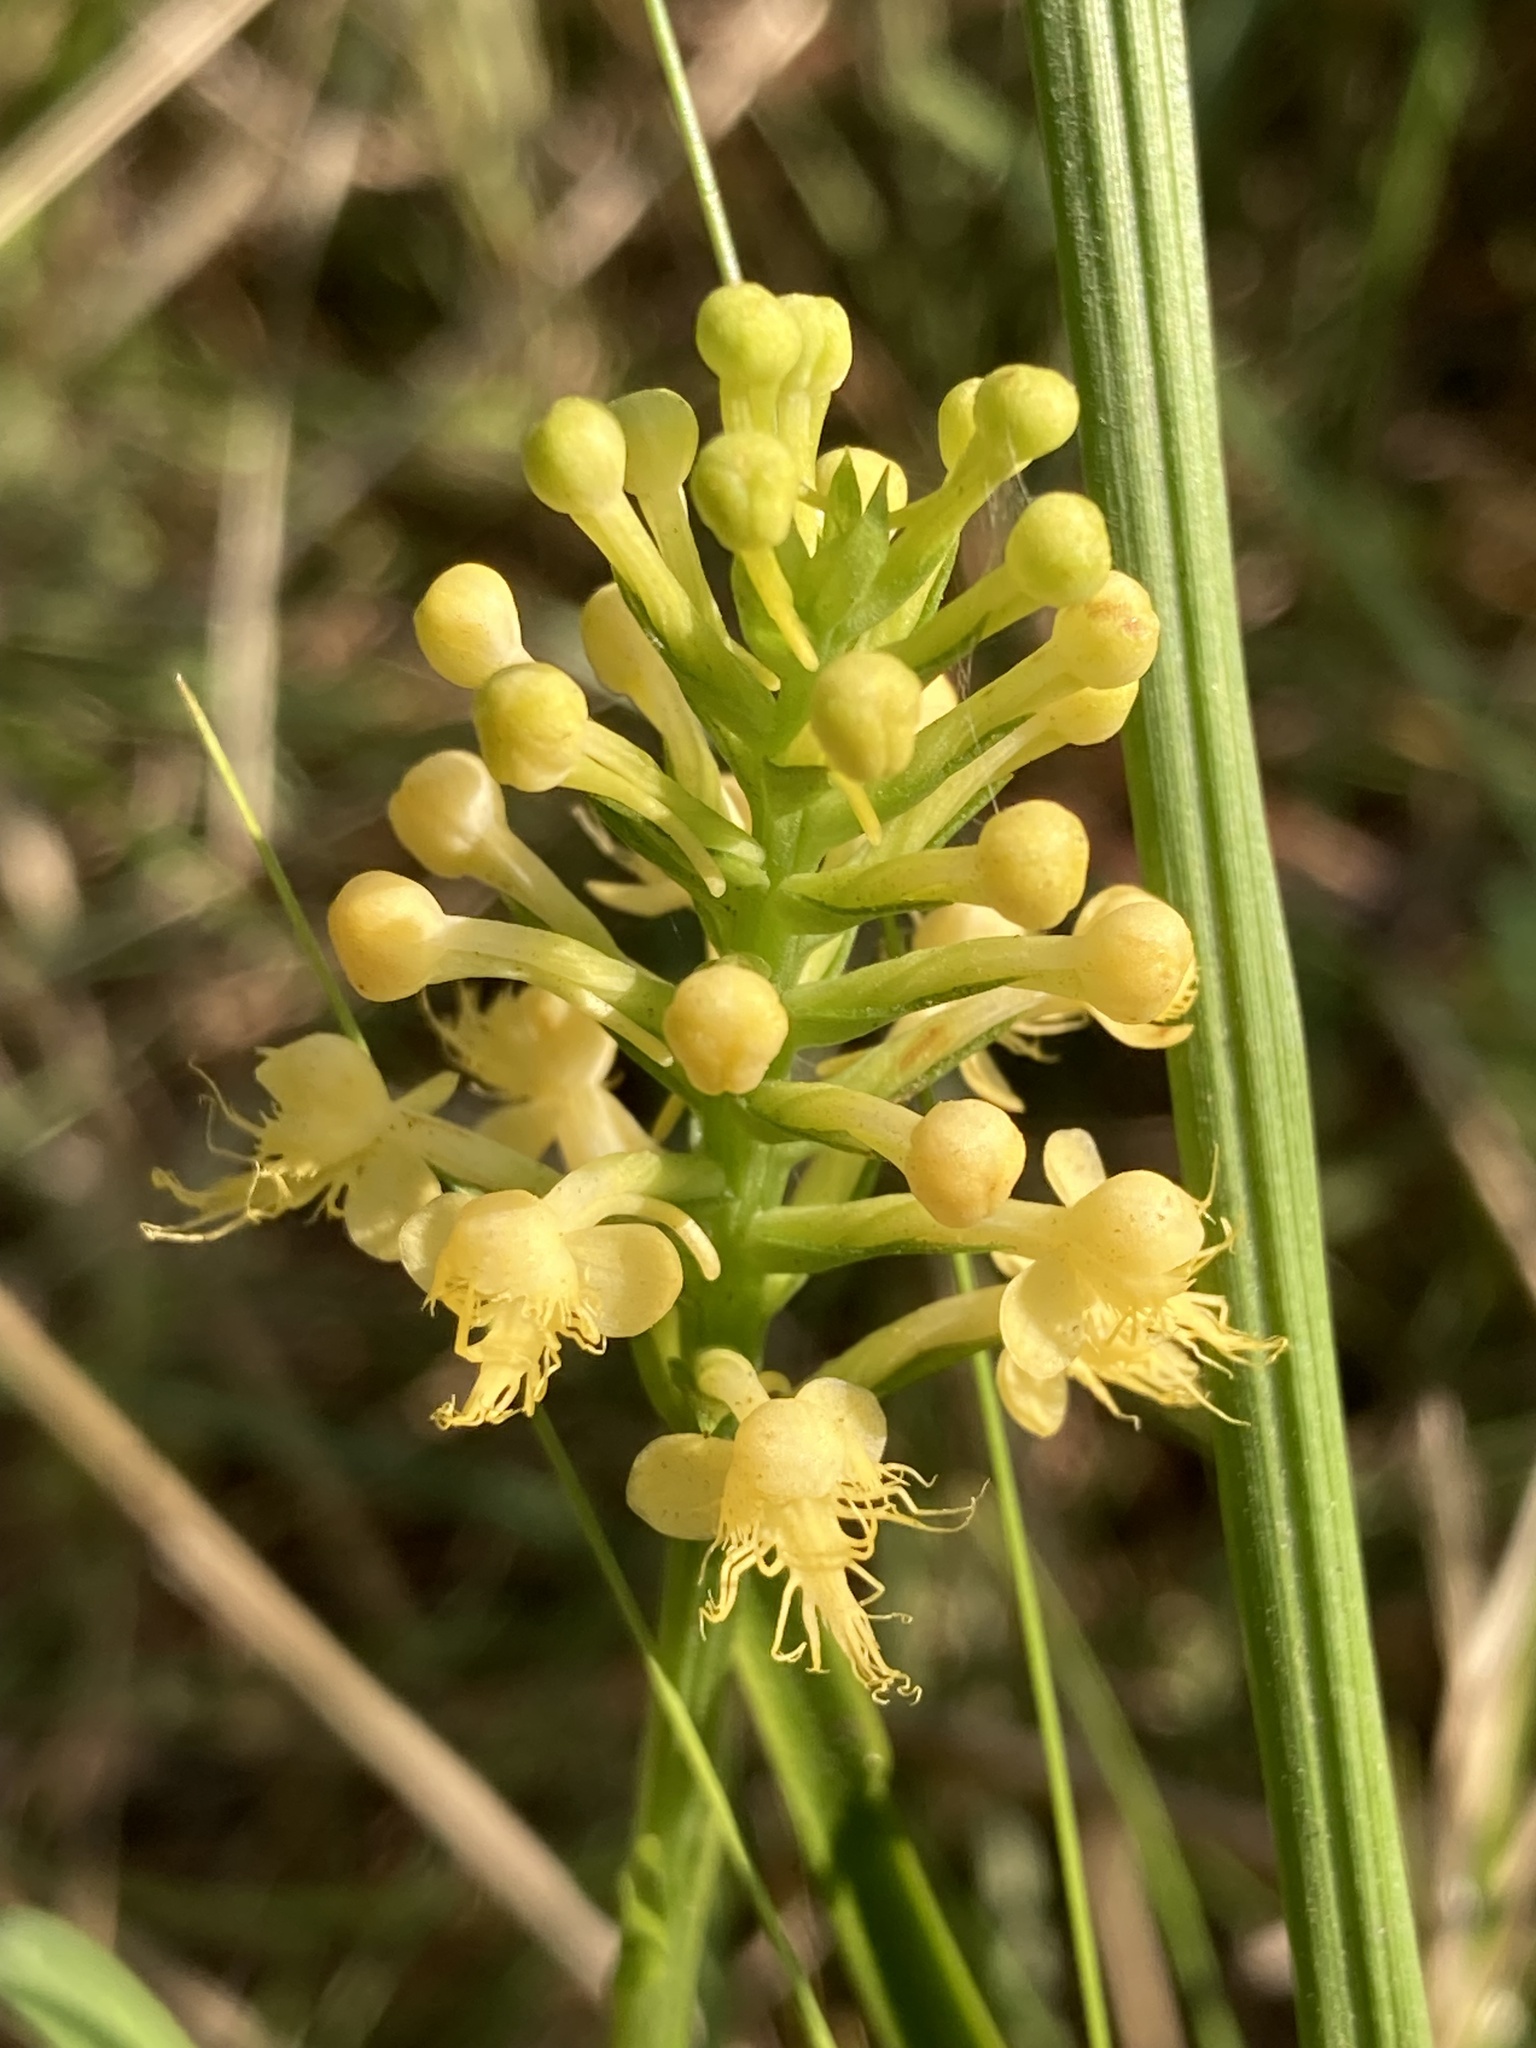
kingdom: Plantae
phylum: Tracheophyta
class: Liliopsida
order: Asparagales
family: Orchidaceae
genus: Platanthera
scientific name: Platanthera canbyi
